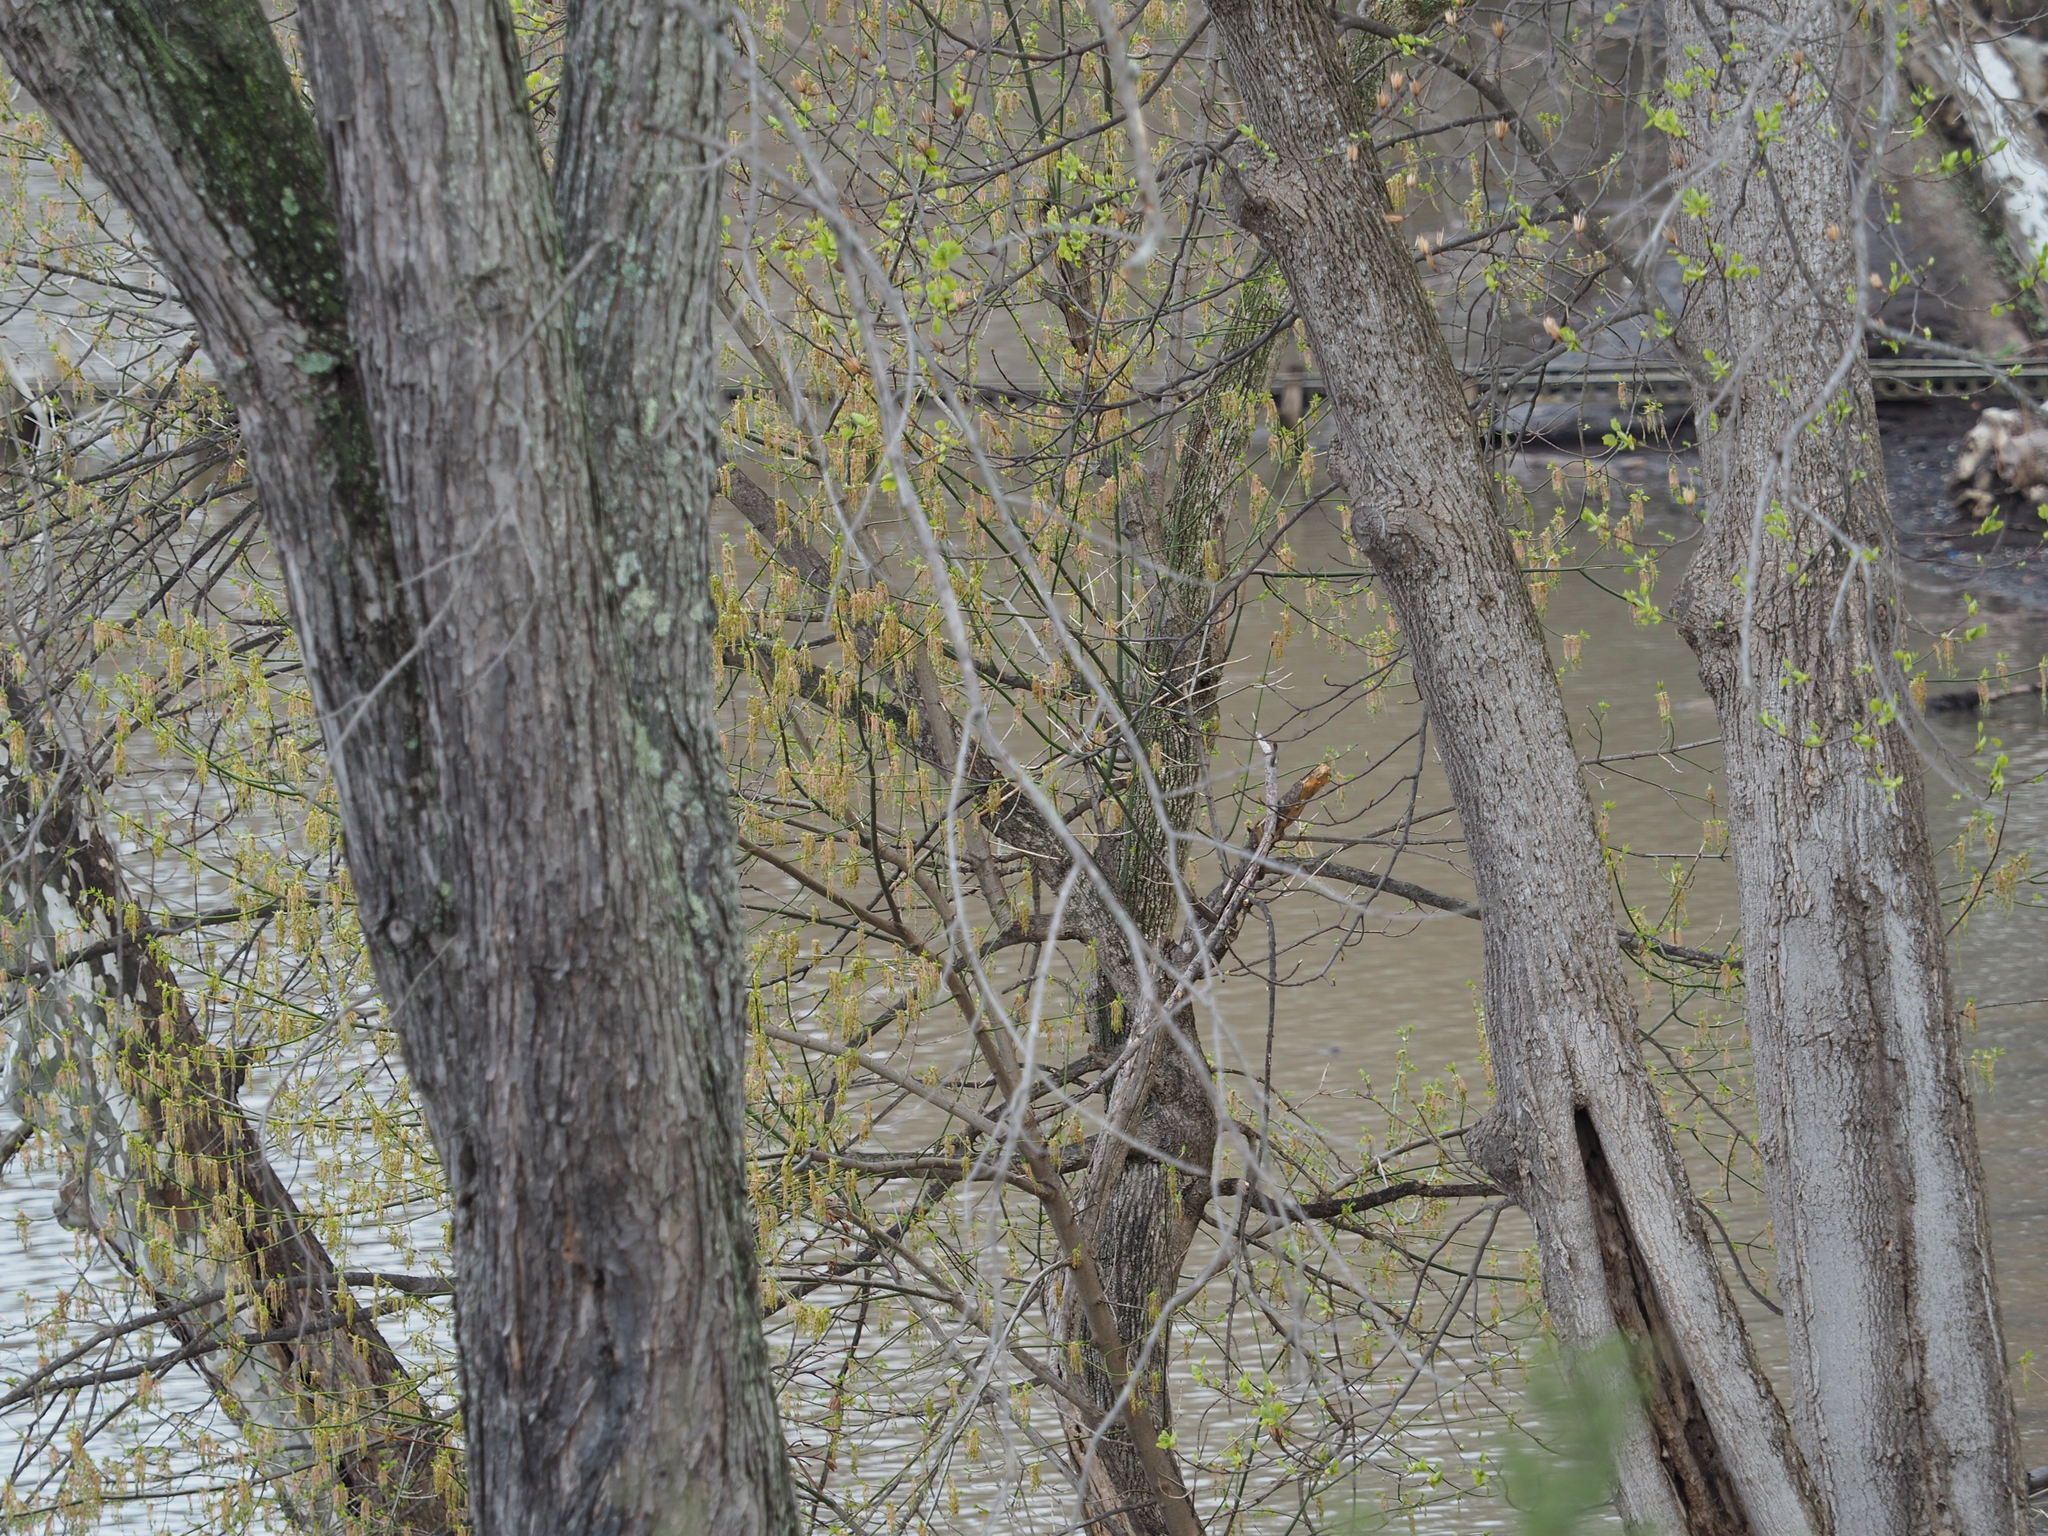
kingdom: Plantae
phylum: Tracheophyta
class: Magnoliopsida
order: Sapindales
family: Sapindaceae
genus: Acer
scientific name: Acer negundo
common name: Ashleaf maple
